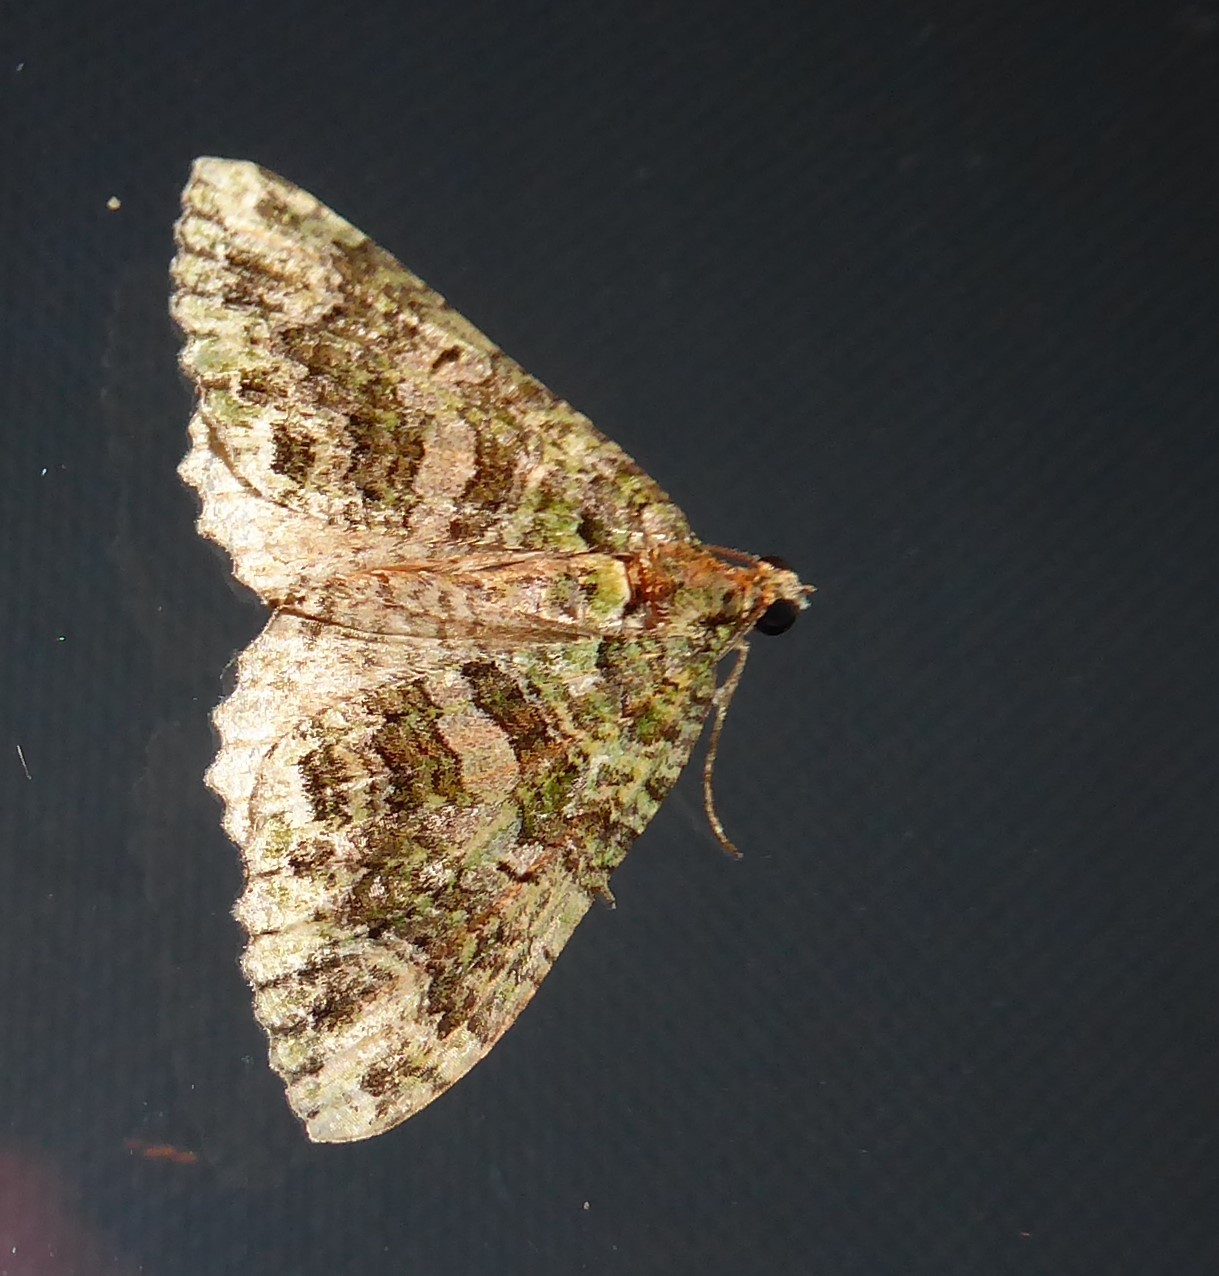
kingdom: Animalia
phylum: Arthropoda
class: Insecta
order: Lepidoptera
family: Geometridae
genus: Austrocidaria
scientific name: Austrocidaria similata
